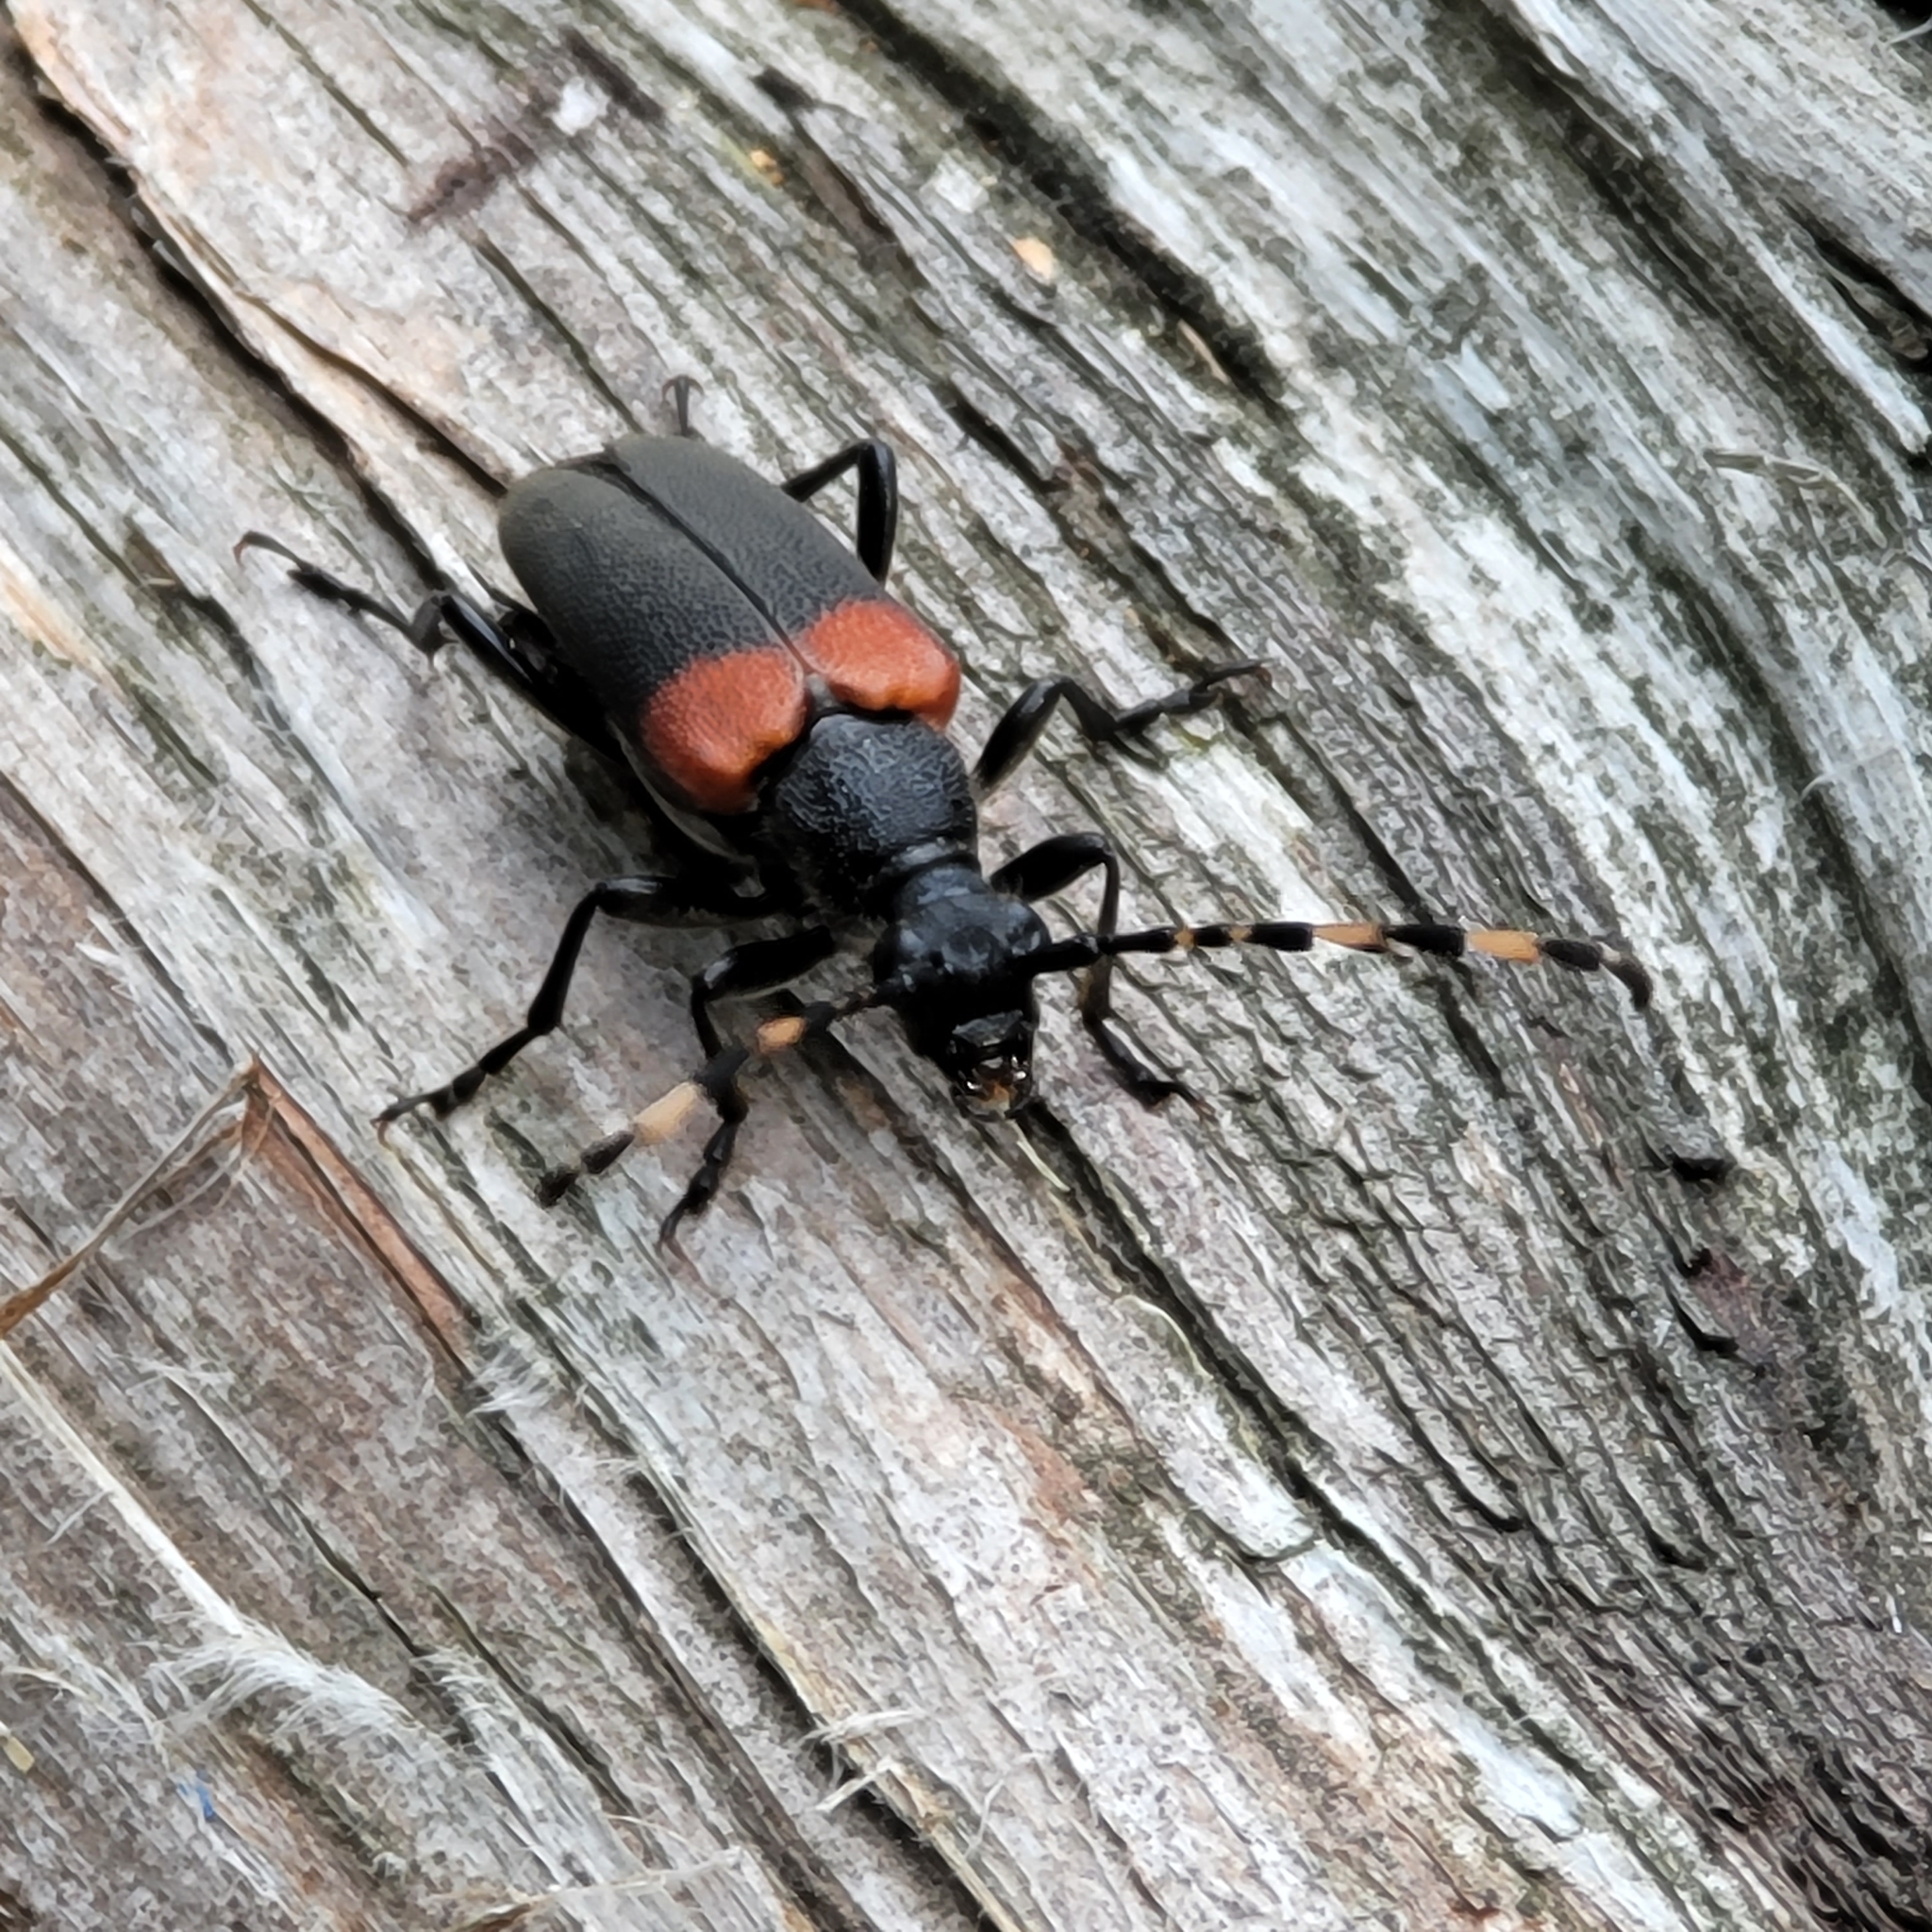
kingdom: Animalia
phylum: Arthropoda
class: Insecta
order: Coleoptera
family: Cerambycidae
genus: Stictoleptura
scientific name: Stictoleptura canadensis
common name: Red-shouldered pine borer
